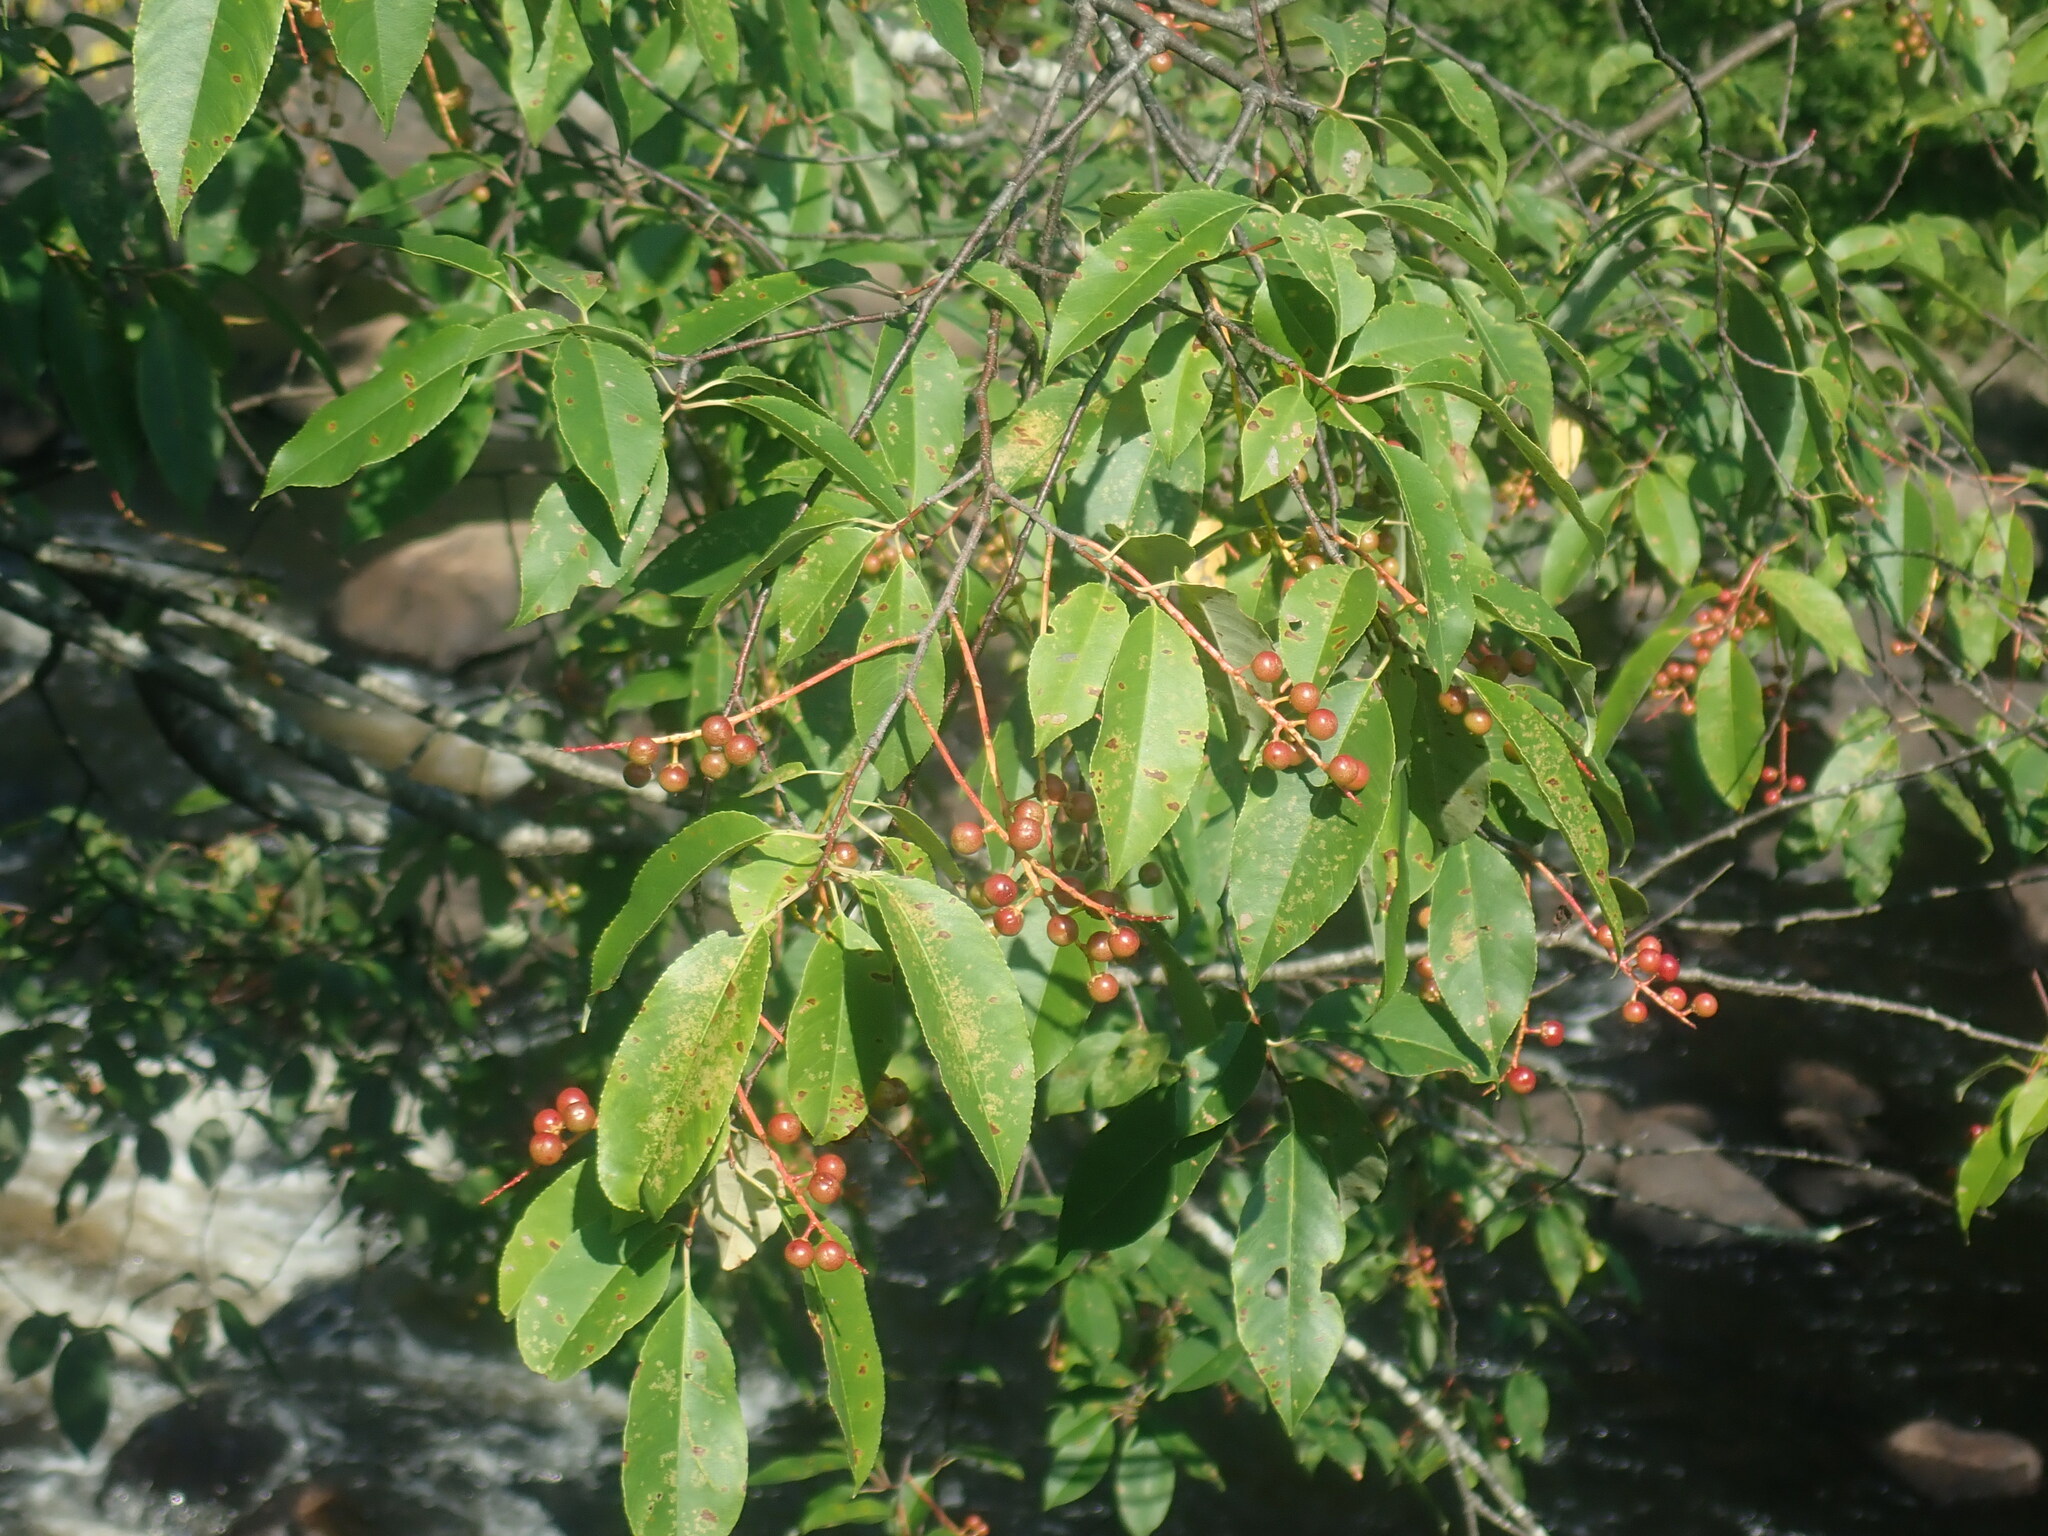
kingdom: Plantae
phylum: Tracheophyta
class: Magnoliopsida
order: Rosales
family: Rosaceae
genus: Prunus
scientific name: Prunus serotina
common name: Black cherry
